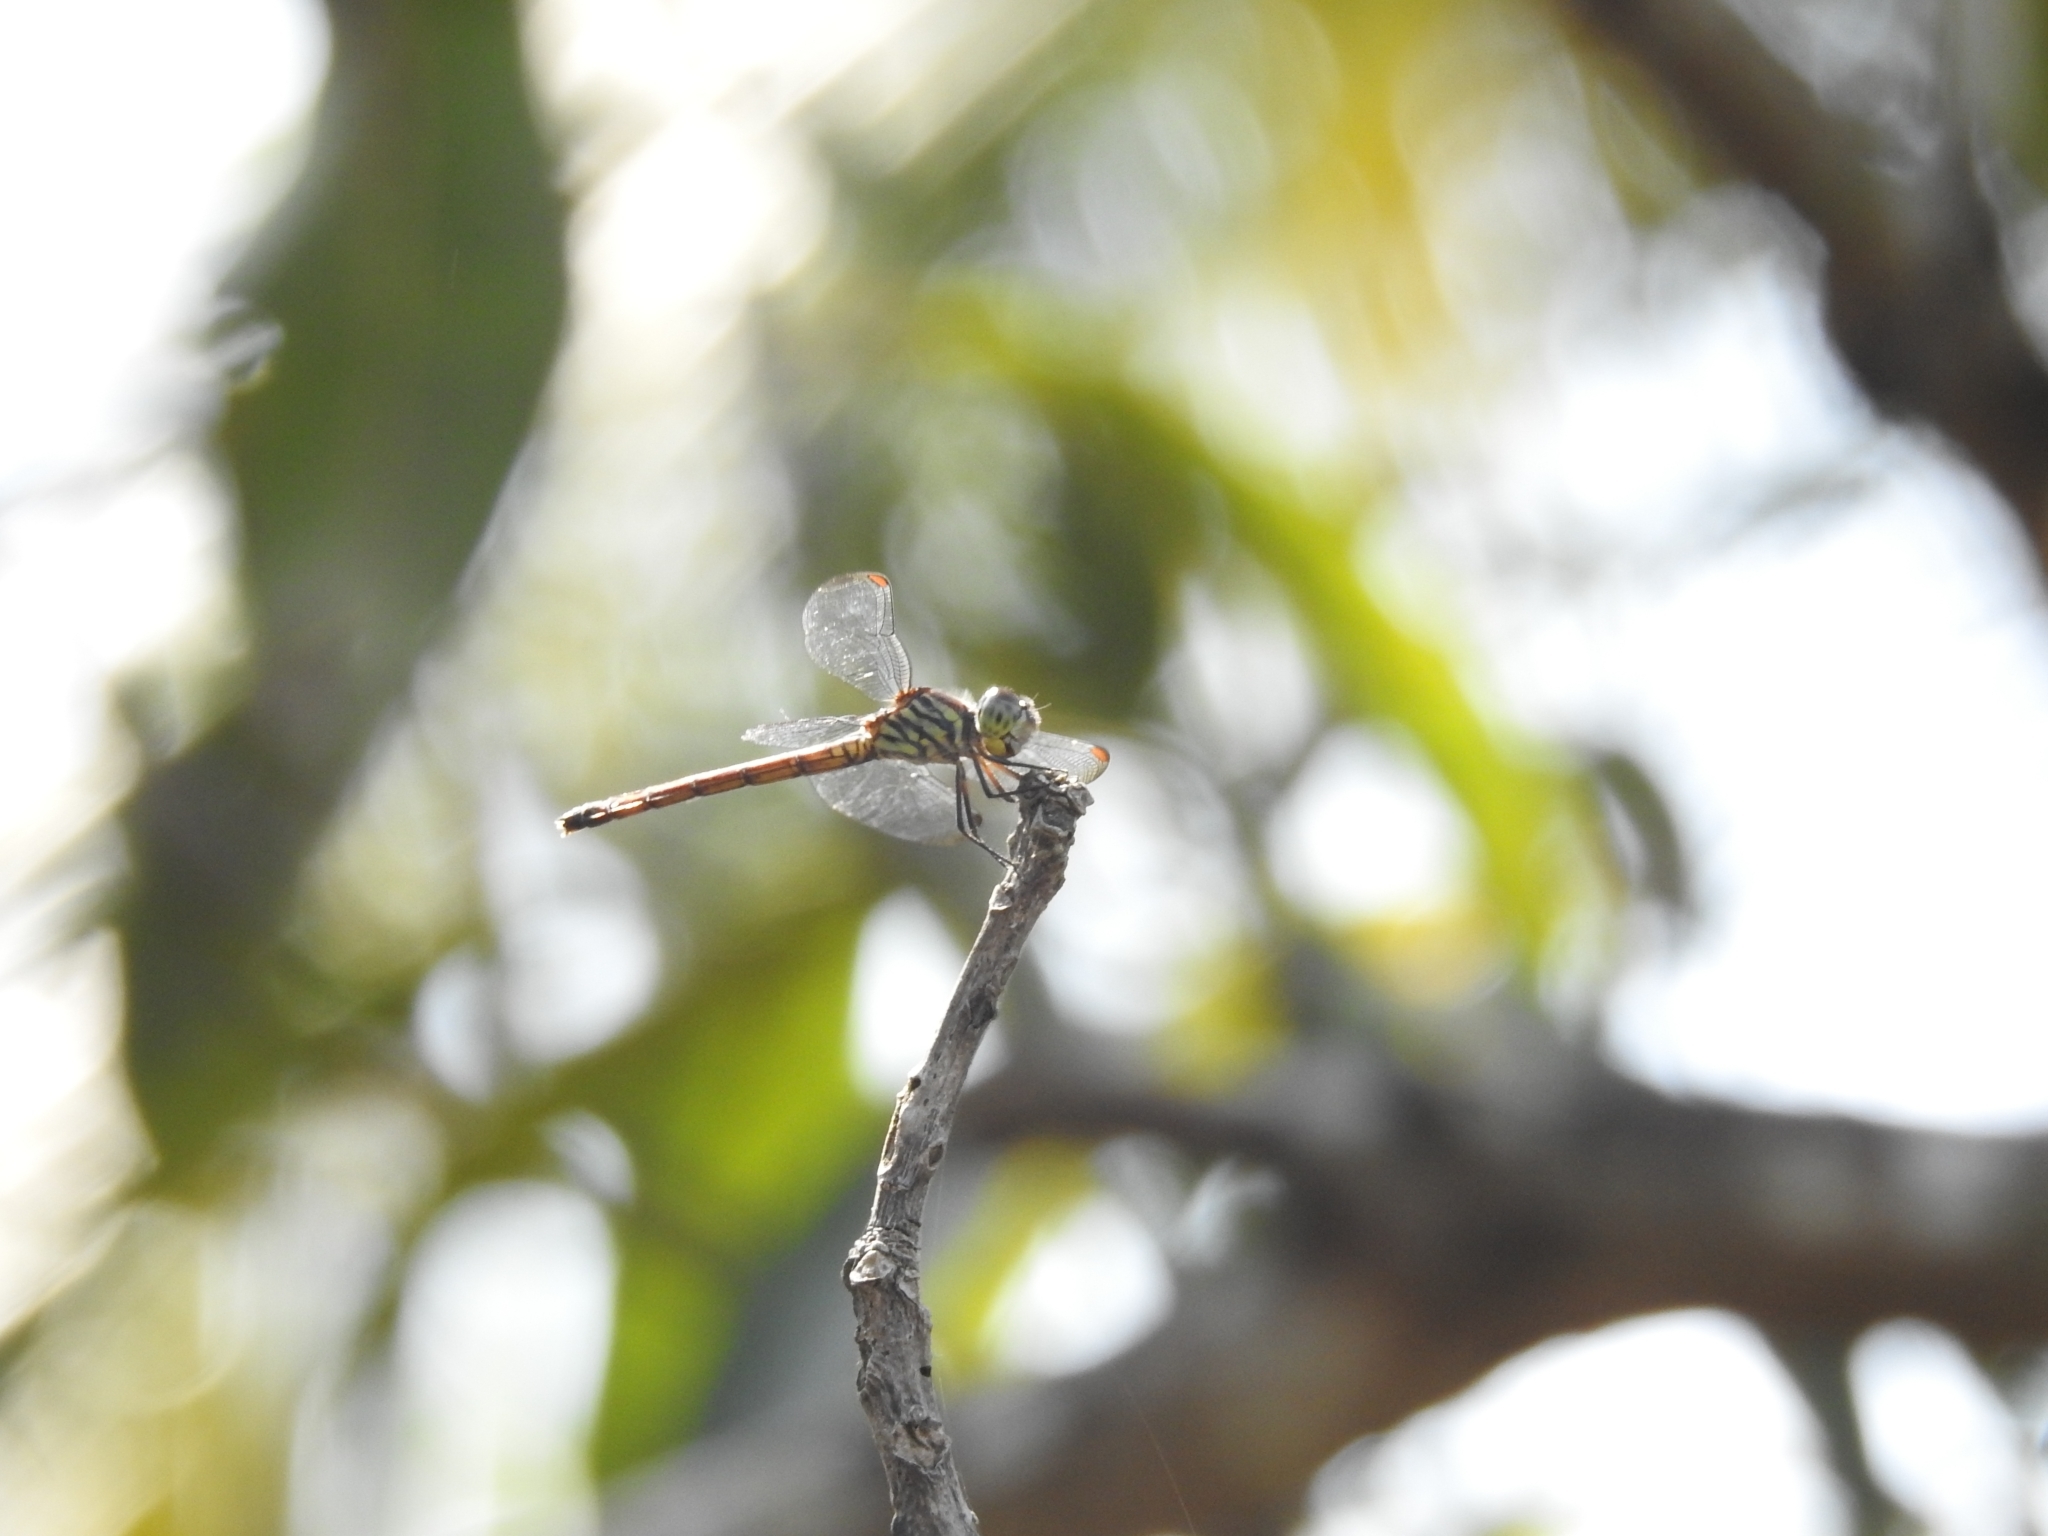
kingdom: Animalia
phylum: Arthropoda
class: Insecta
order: Odonata
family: Libellulidae
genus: Lathrecista
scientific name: Lathrecista asiatica
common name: Scarlet grenadier
